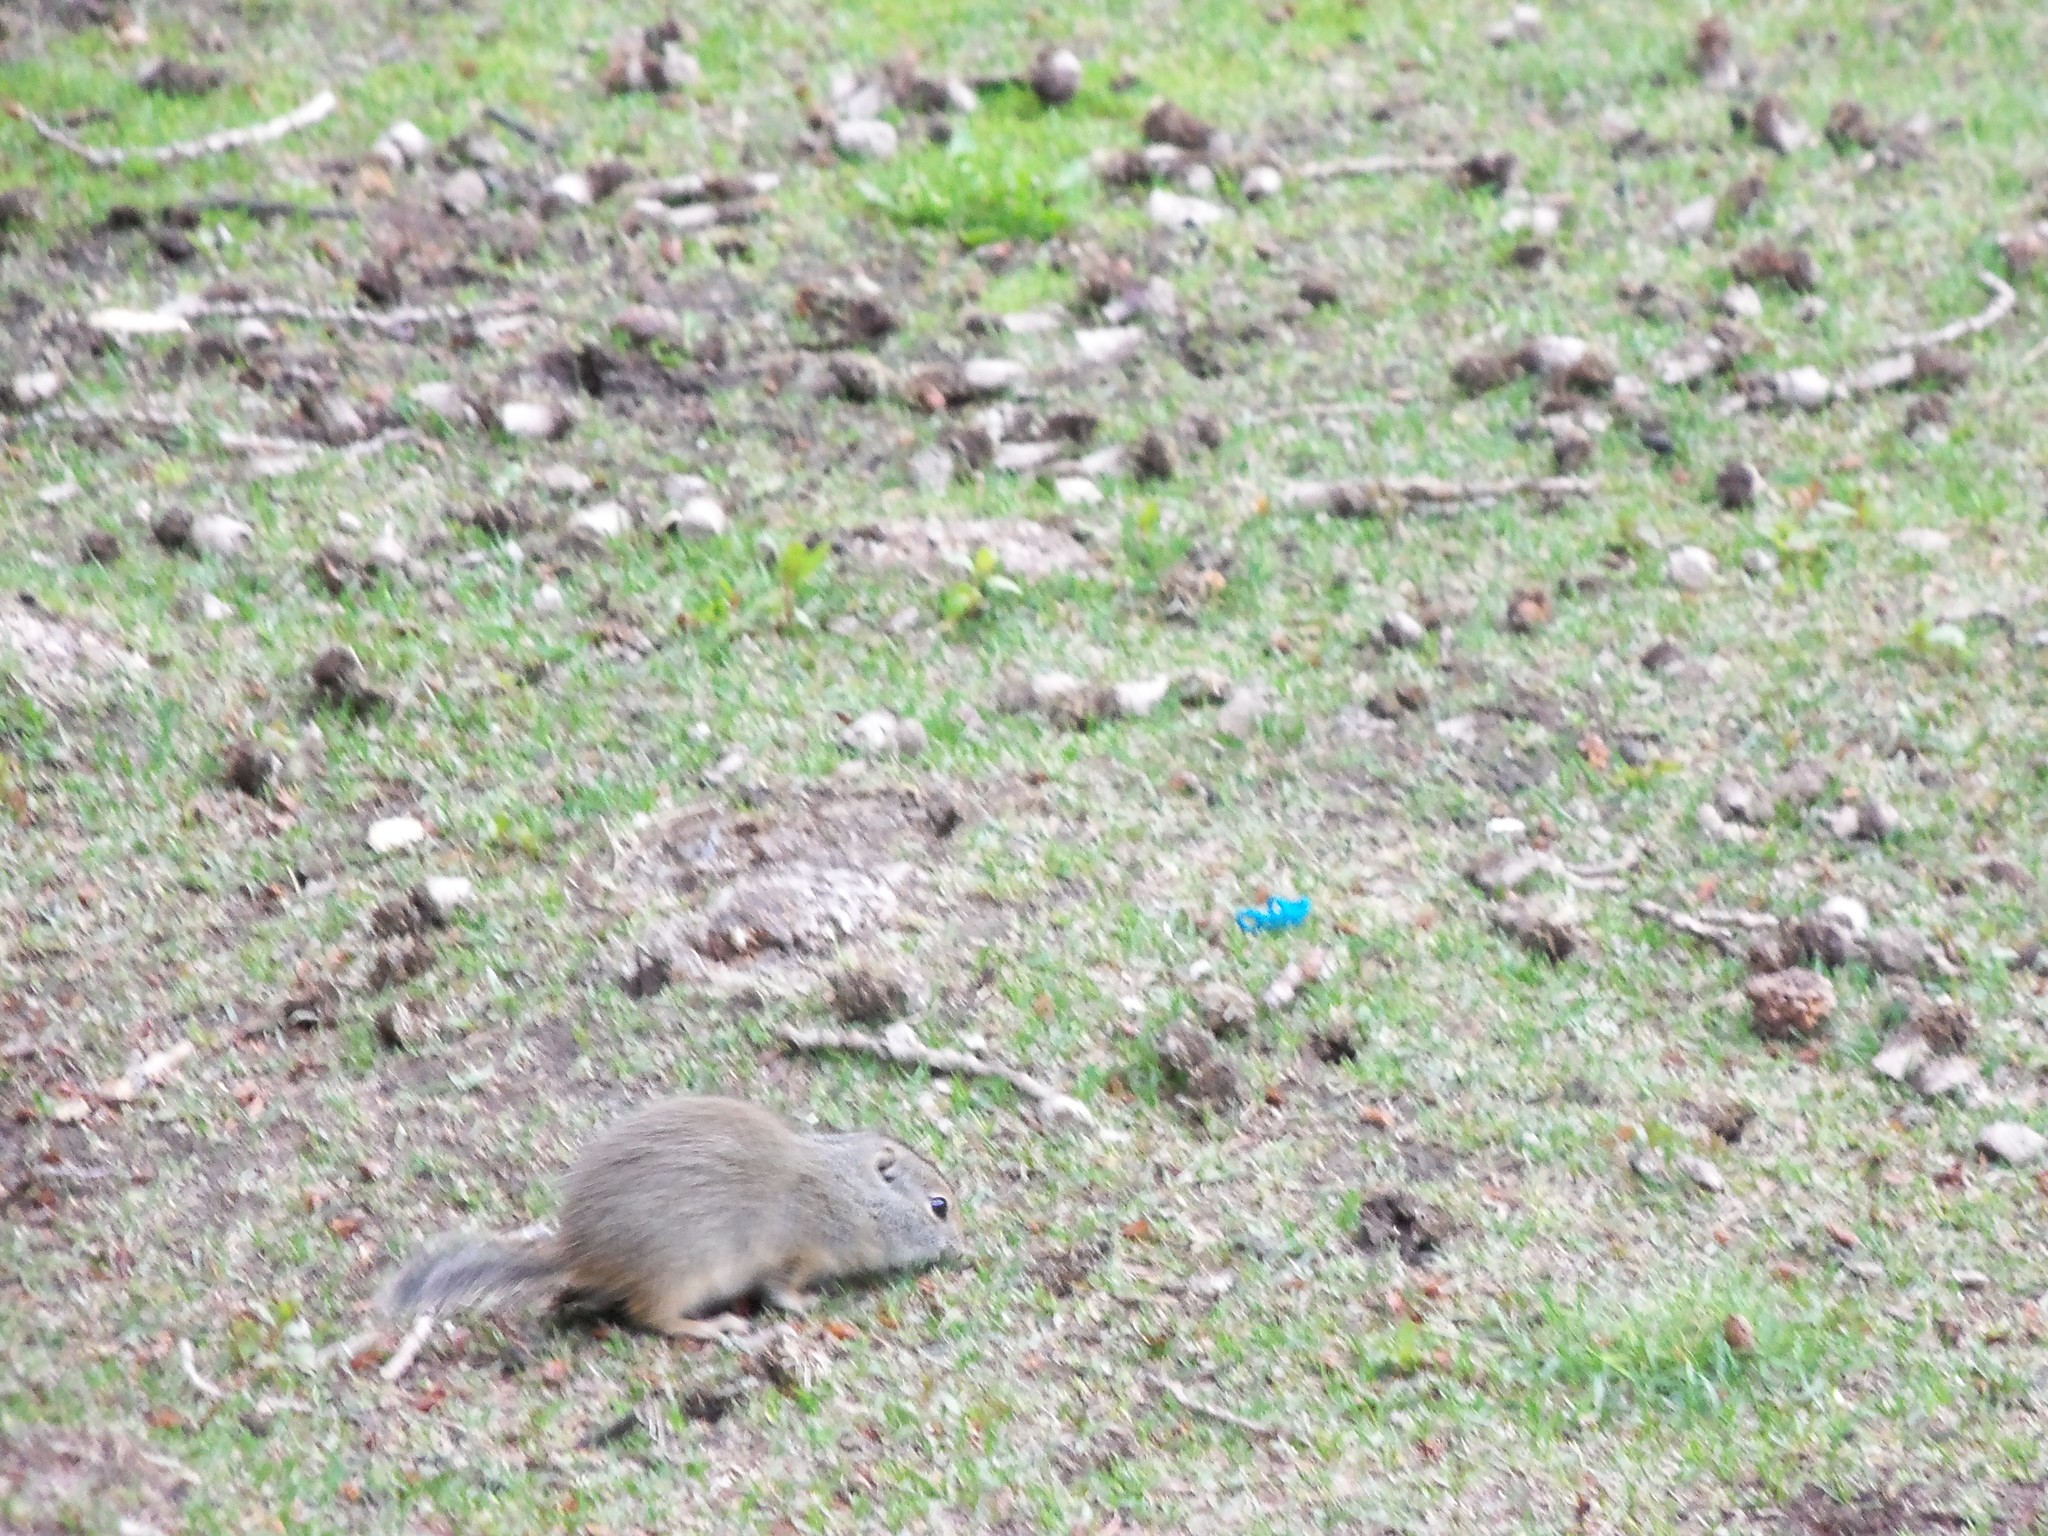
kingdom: Animalia
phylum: Chordata
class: Mammalia
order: Rodentia
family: Sciuridae
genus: Urocitellus
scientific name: Urocitellus armatus
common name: Uinta ground squirrel
